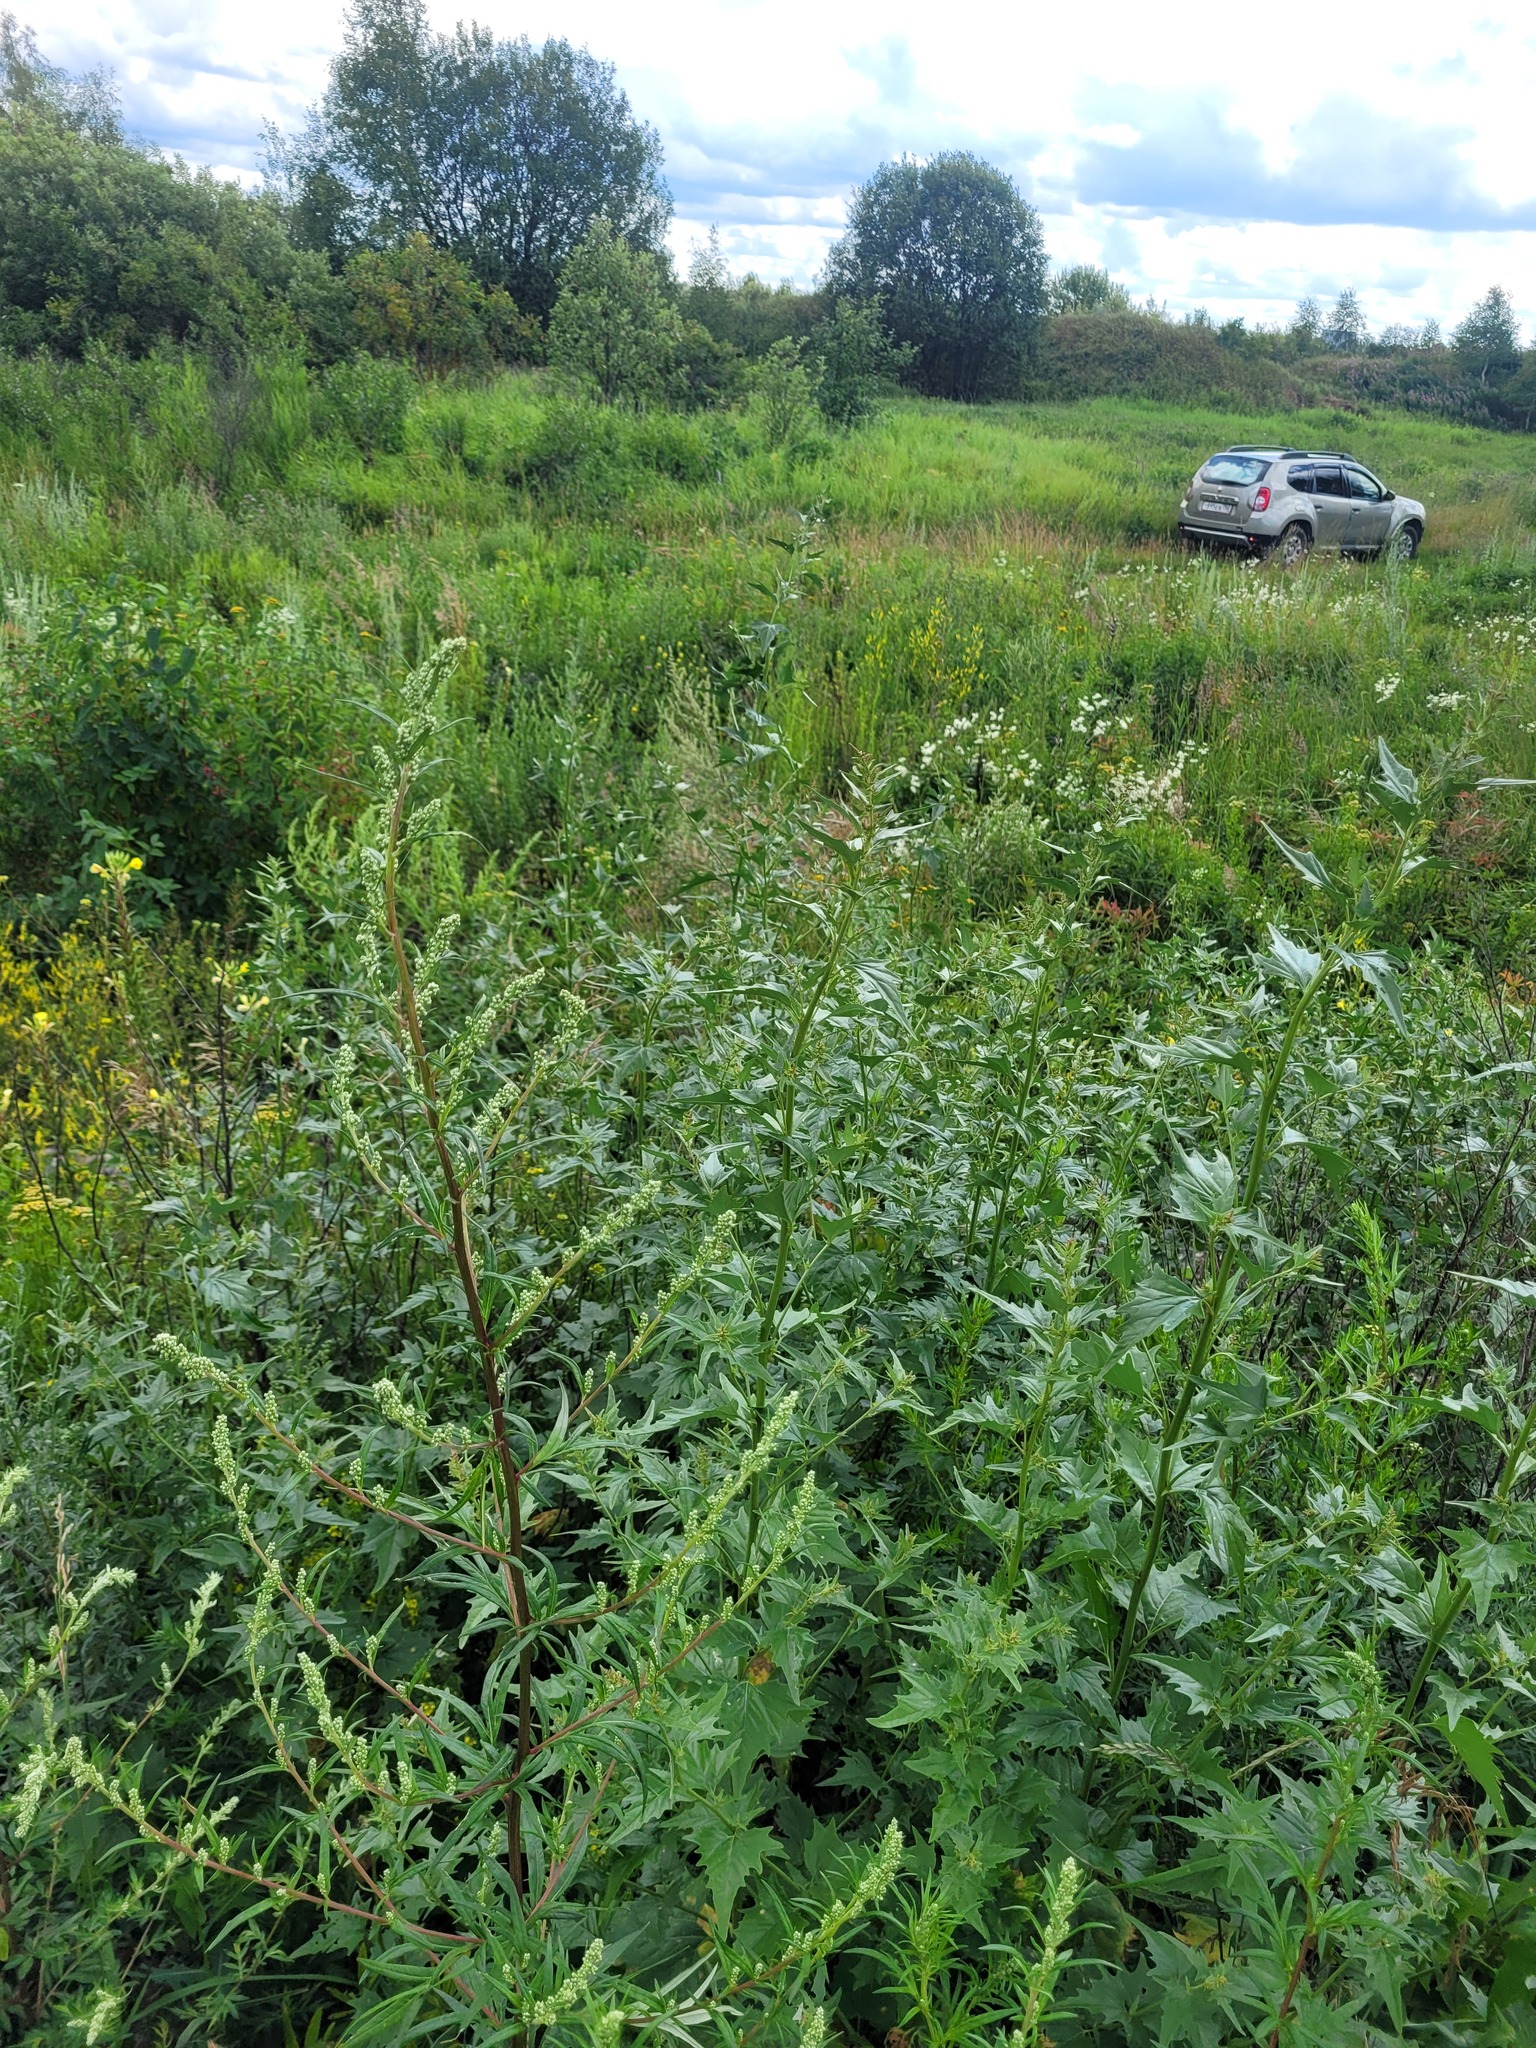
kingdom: Plantae
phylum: Tracheophyta
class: Magnoliopsida
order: Caryophyllales
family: Amaranthaceae
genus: Atriplex
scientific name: Atriplex sagittata
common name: Purple orache
